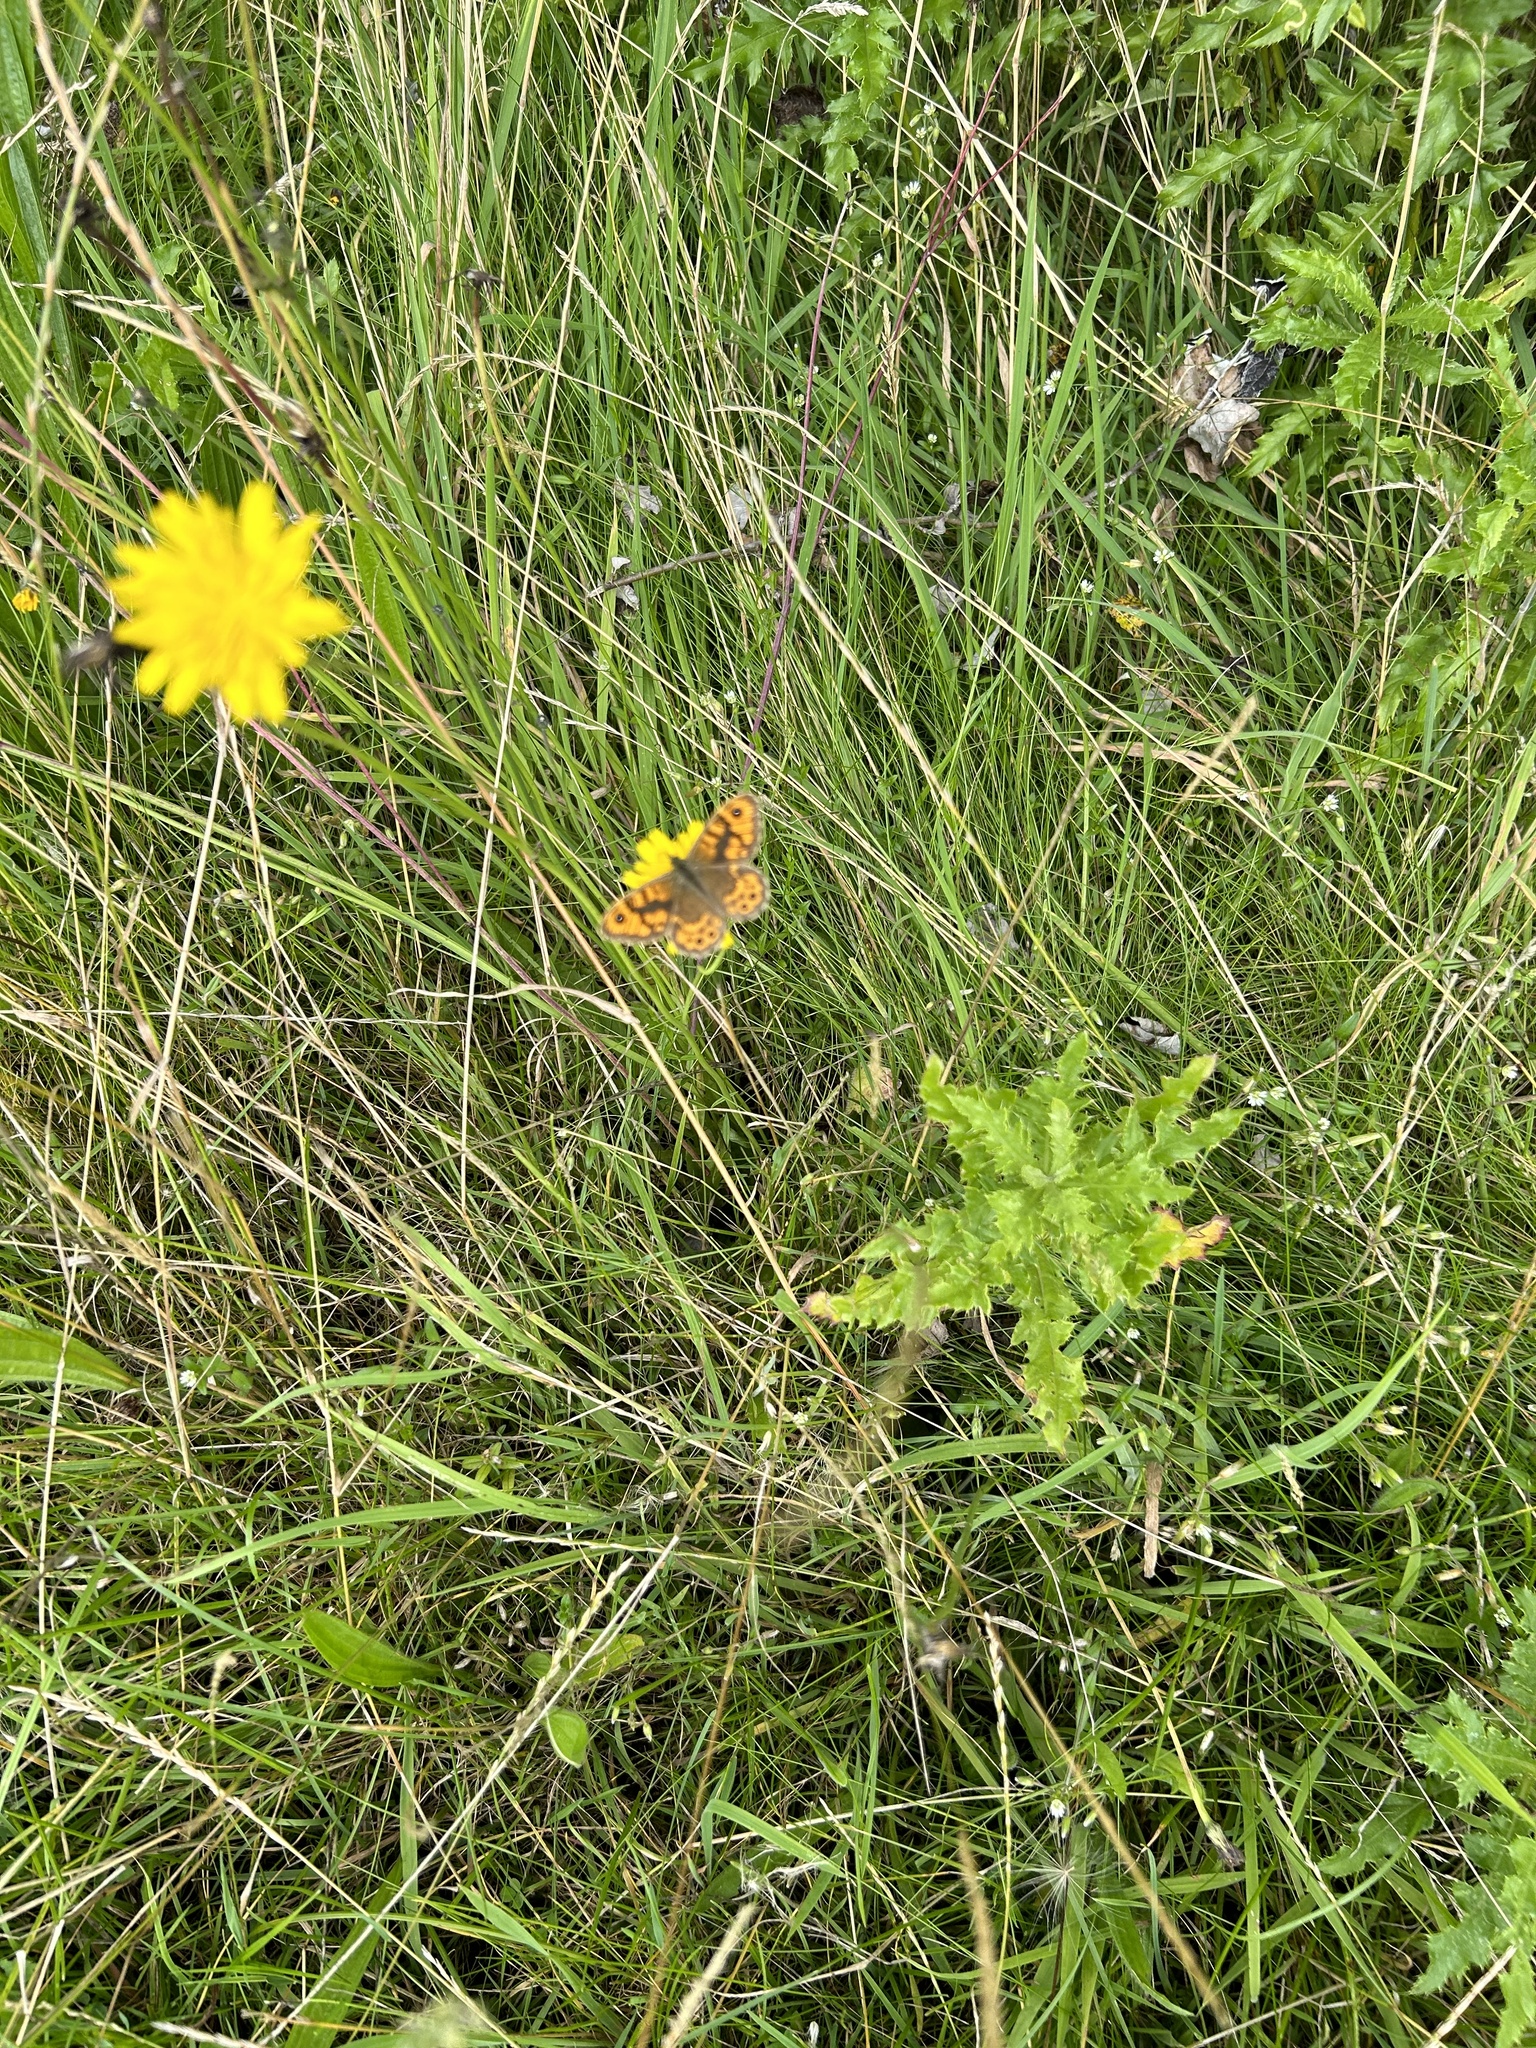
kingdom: Animalia
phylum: Arthropoda
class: Insecta
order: Lepidoptera
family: Nymphalidae
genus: Pararge
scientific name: Pararge Lasiommata megera
